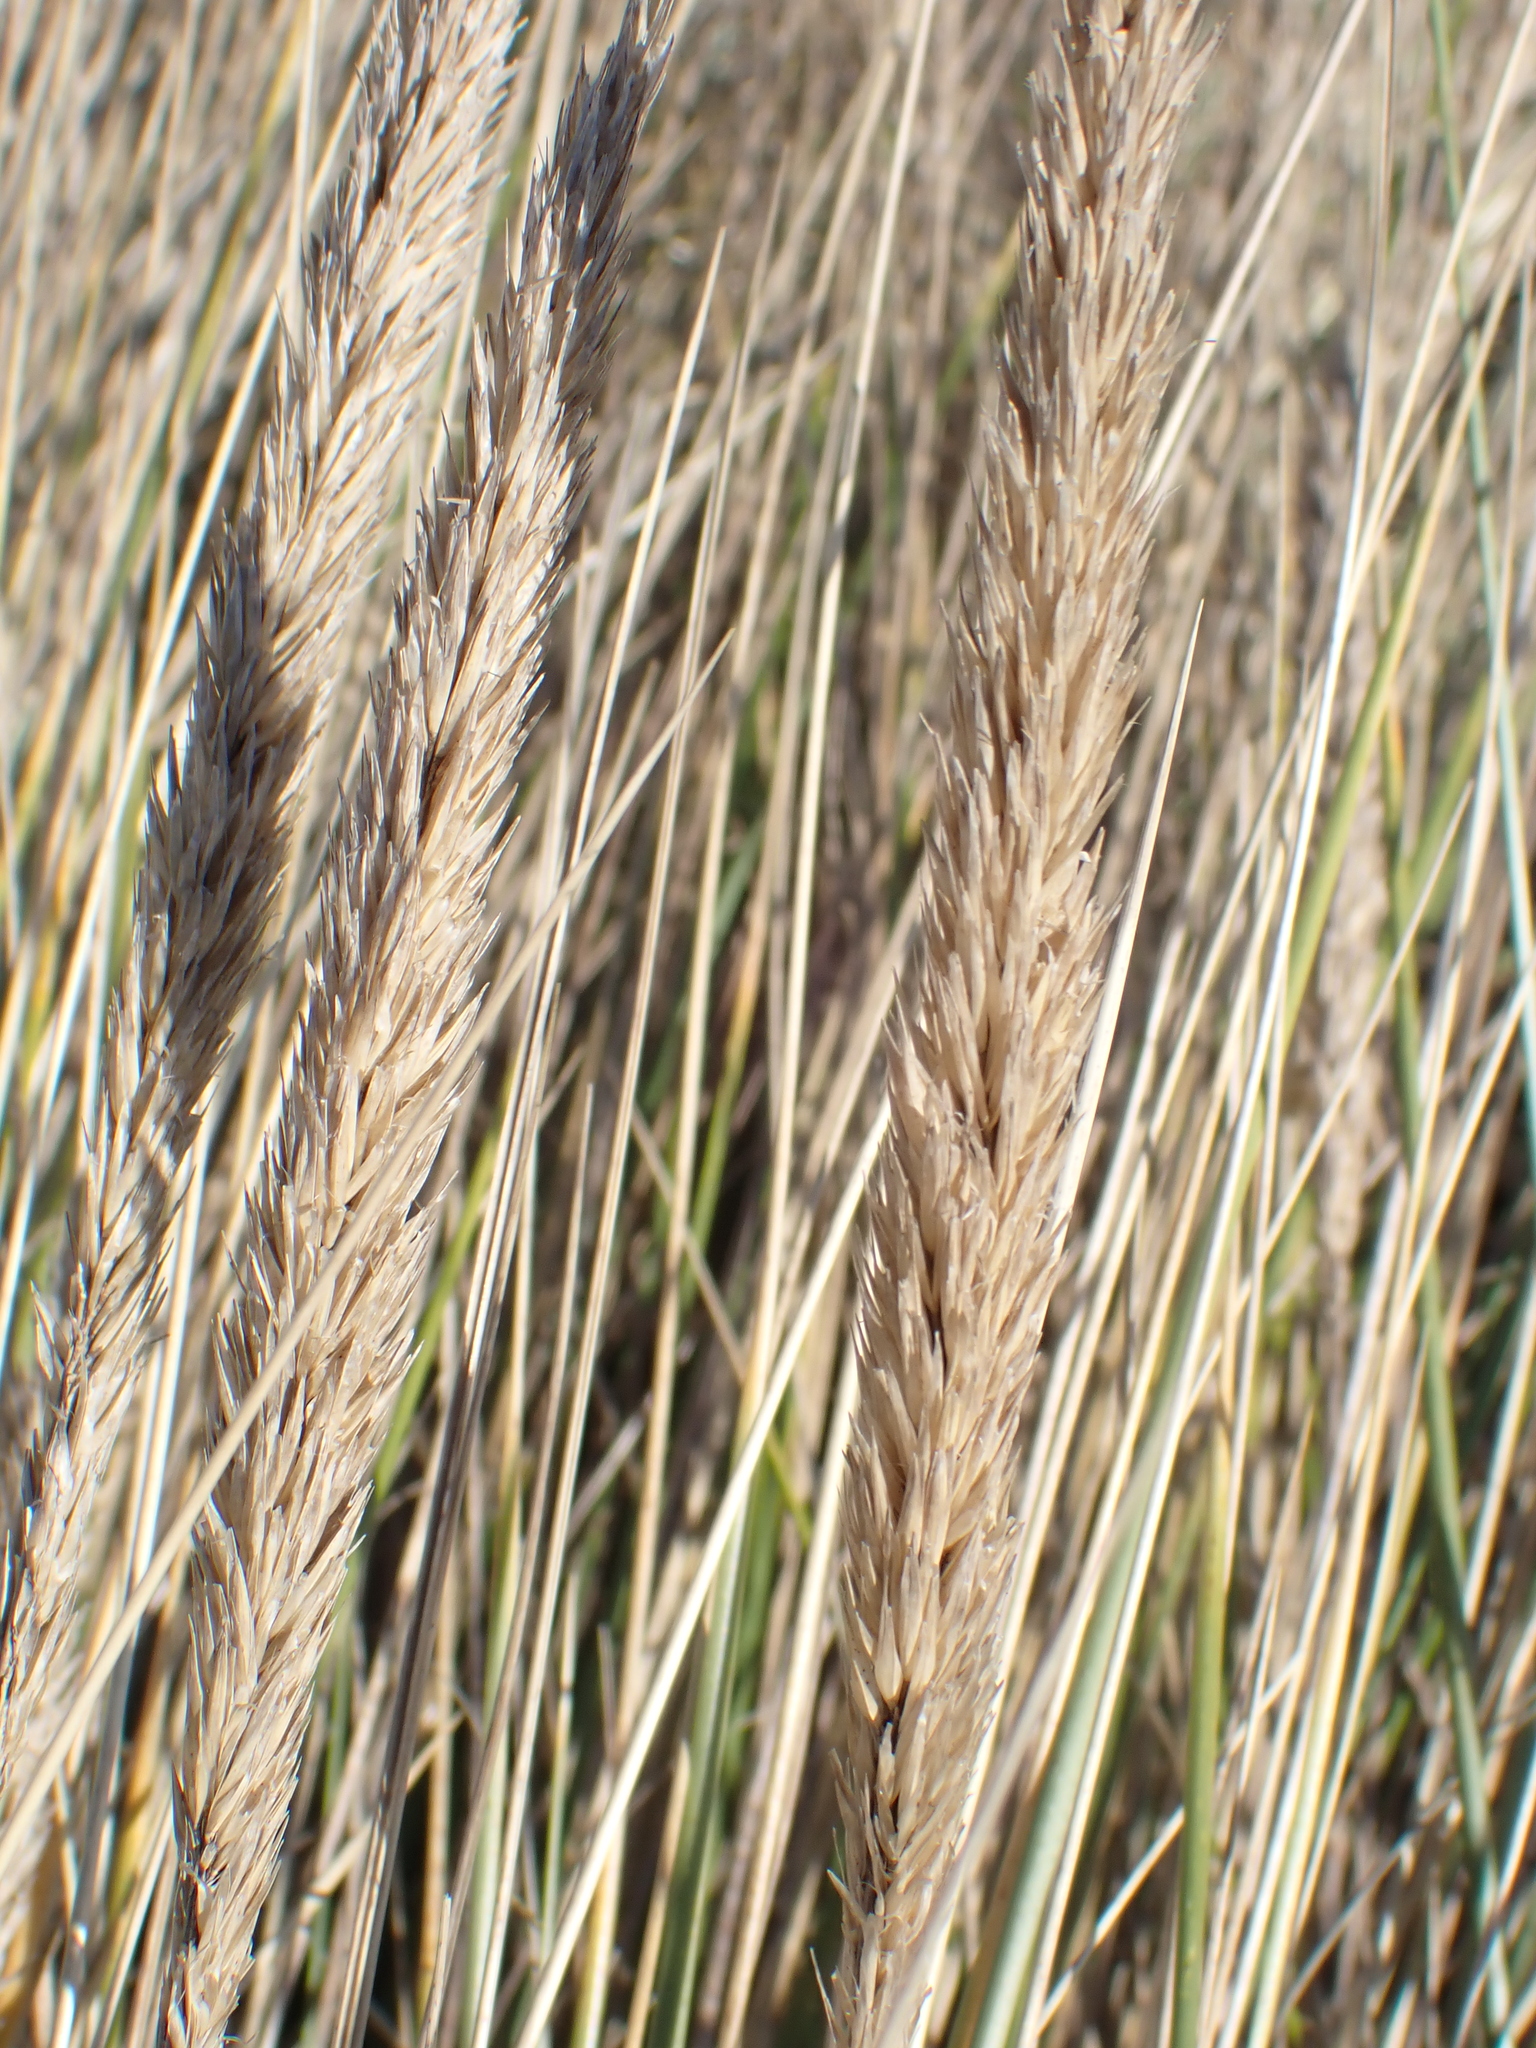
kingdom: Plantae
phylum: Tracheophyta
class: Liliopsida
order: Poales
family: Poaceae
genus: Calamagrostis
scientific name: Calamagrostis arenaria
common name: European beachgrass
